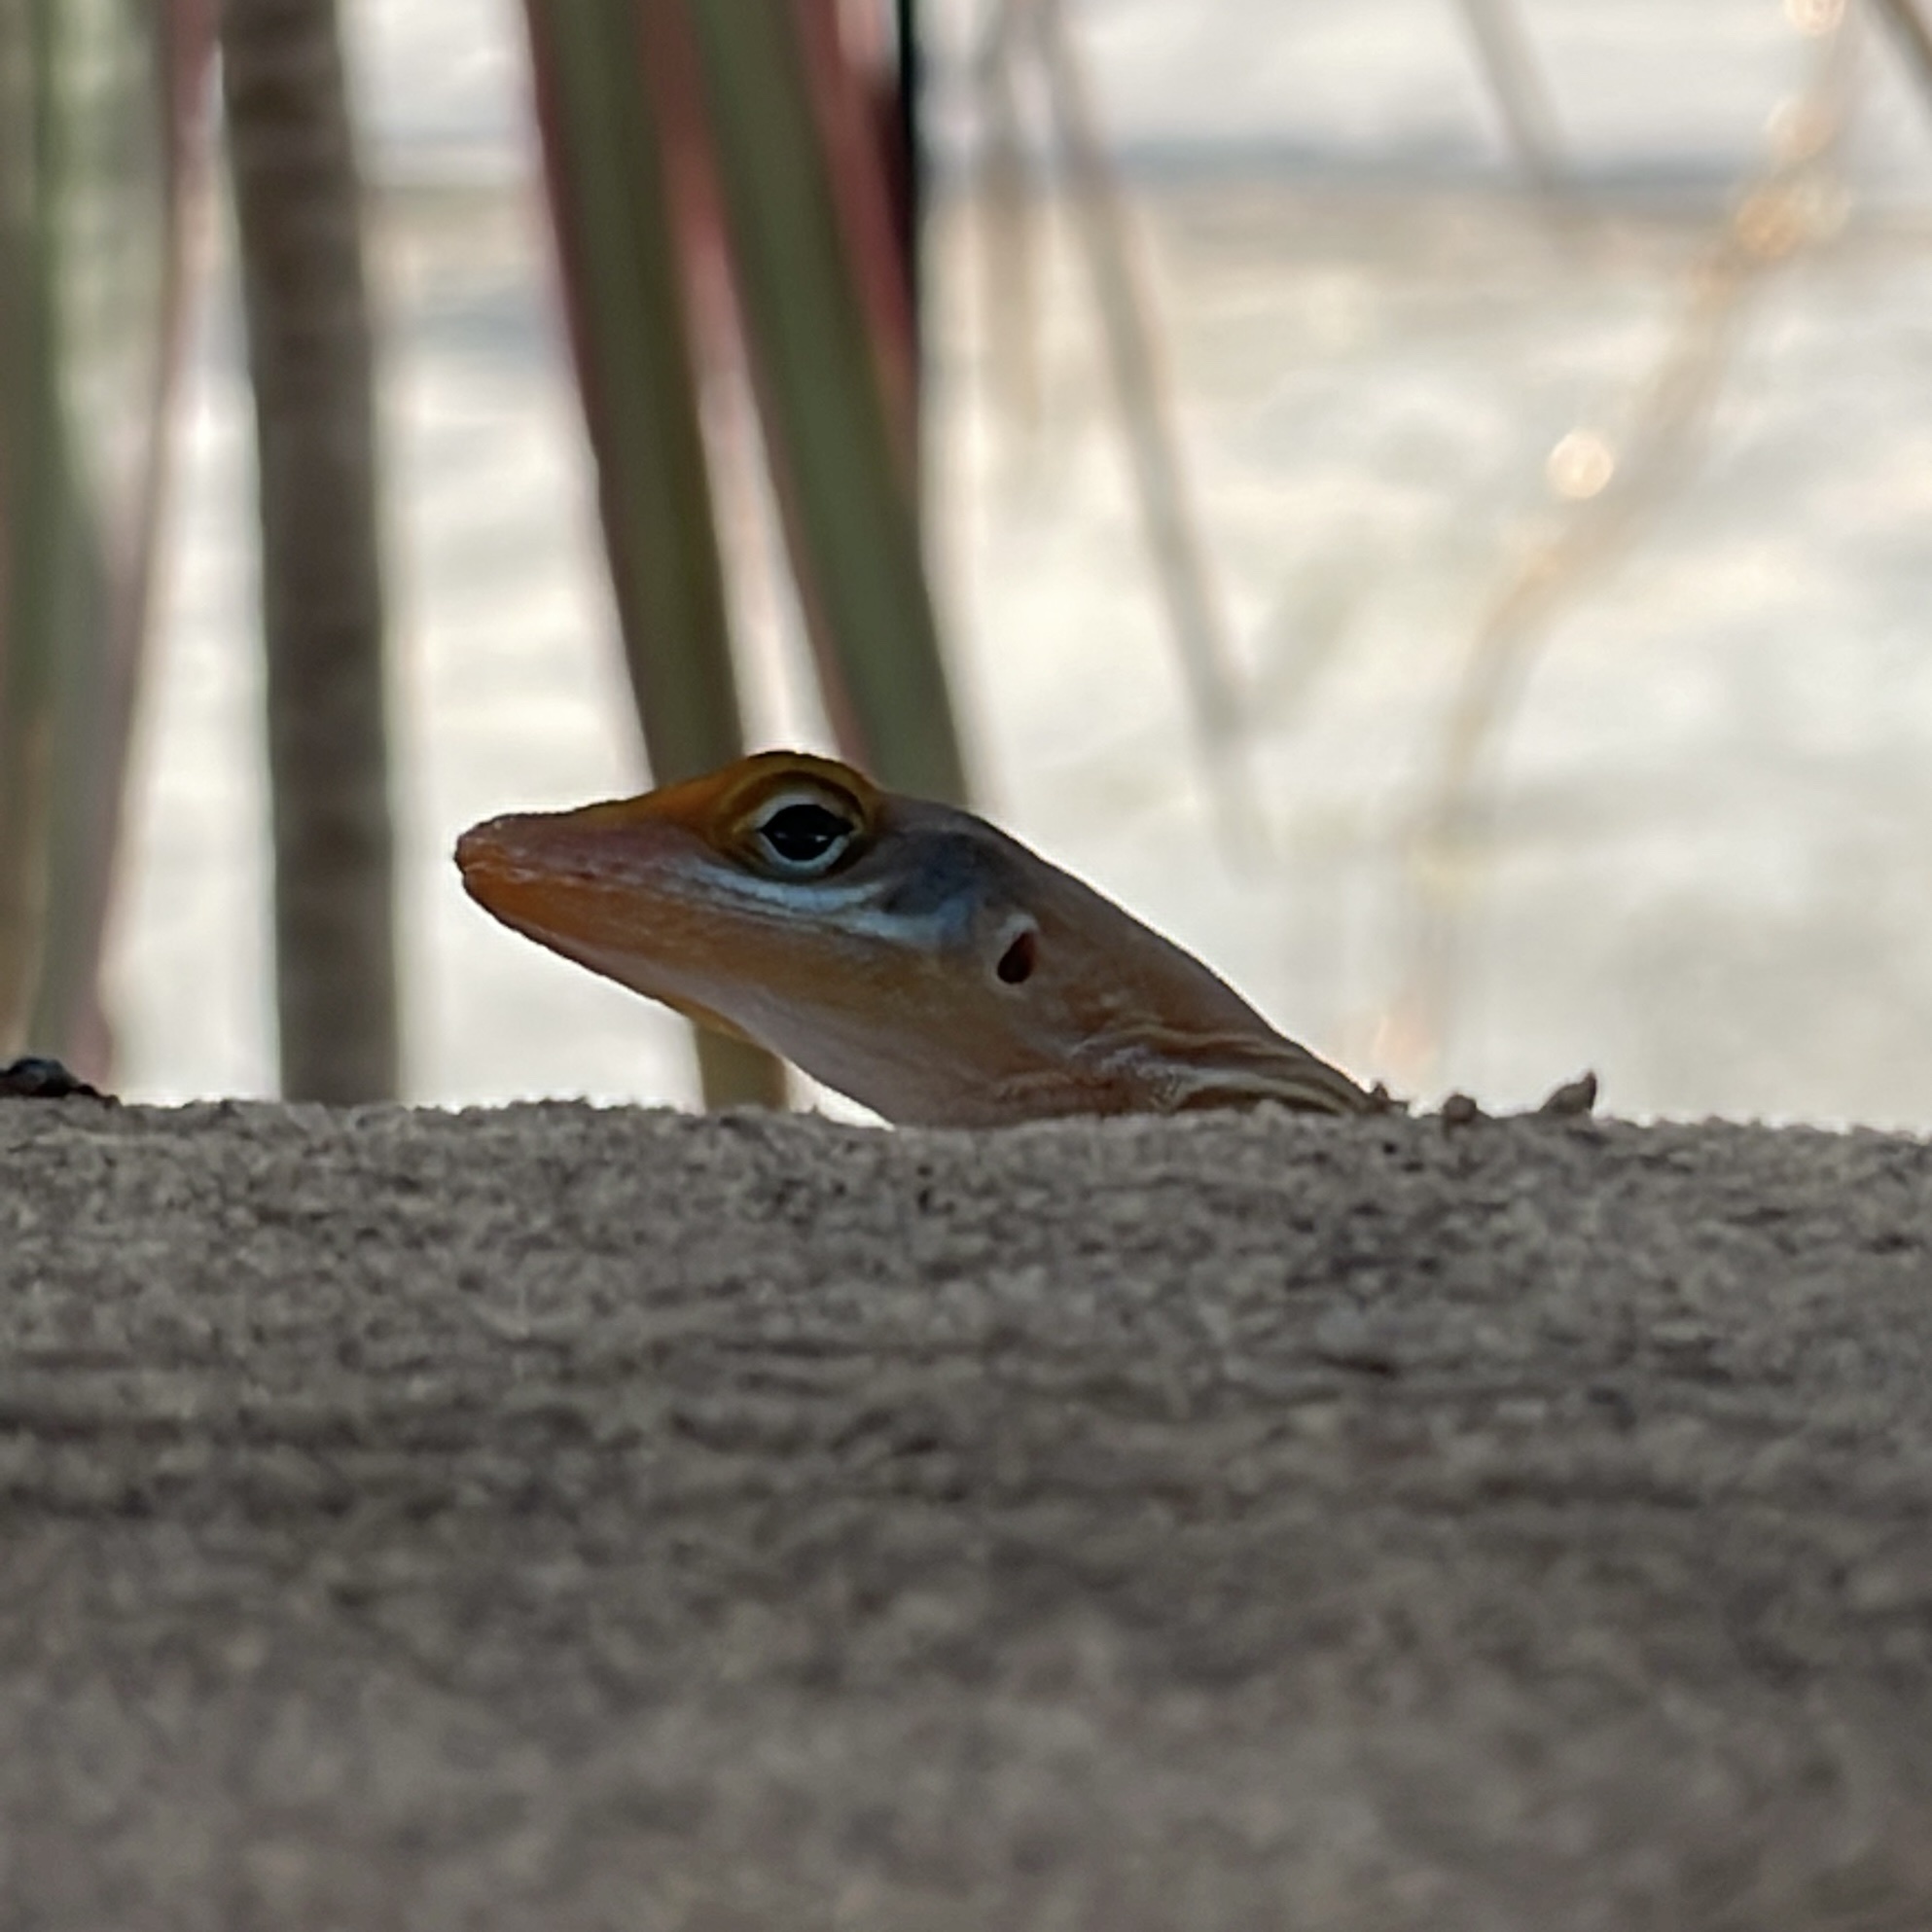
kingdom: Animalia
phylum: Chordata
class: Squamata
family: Dactyloidae
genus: Anolis
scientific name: Anolis wattsii
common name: Antigua bank bush anole
